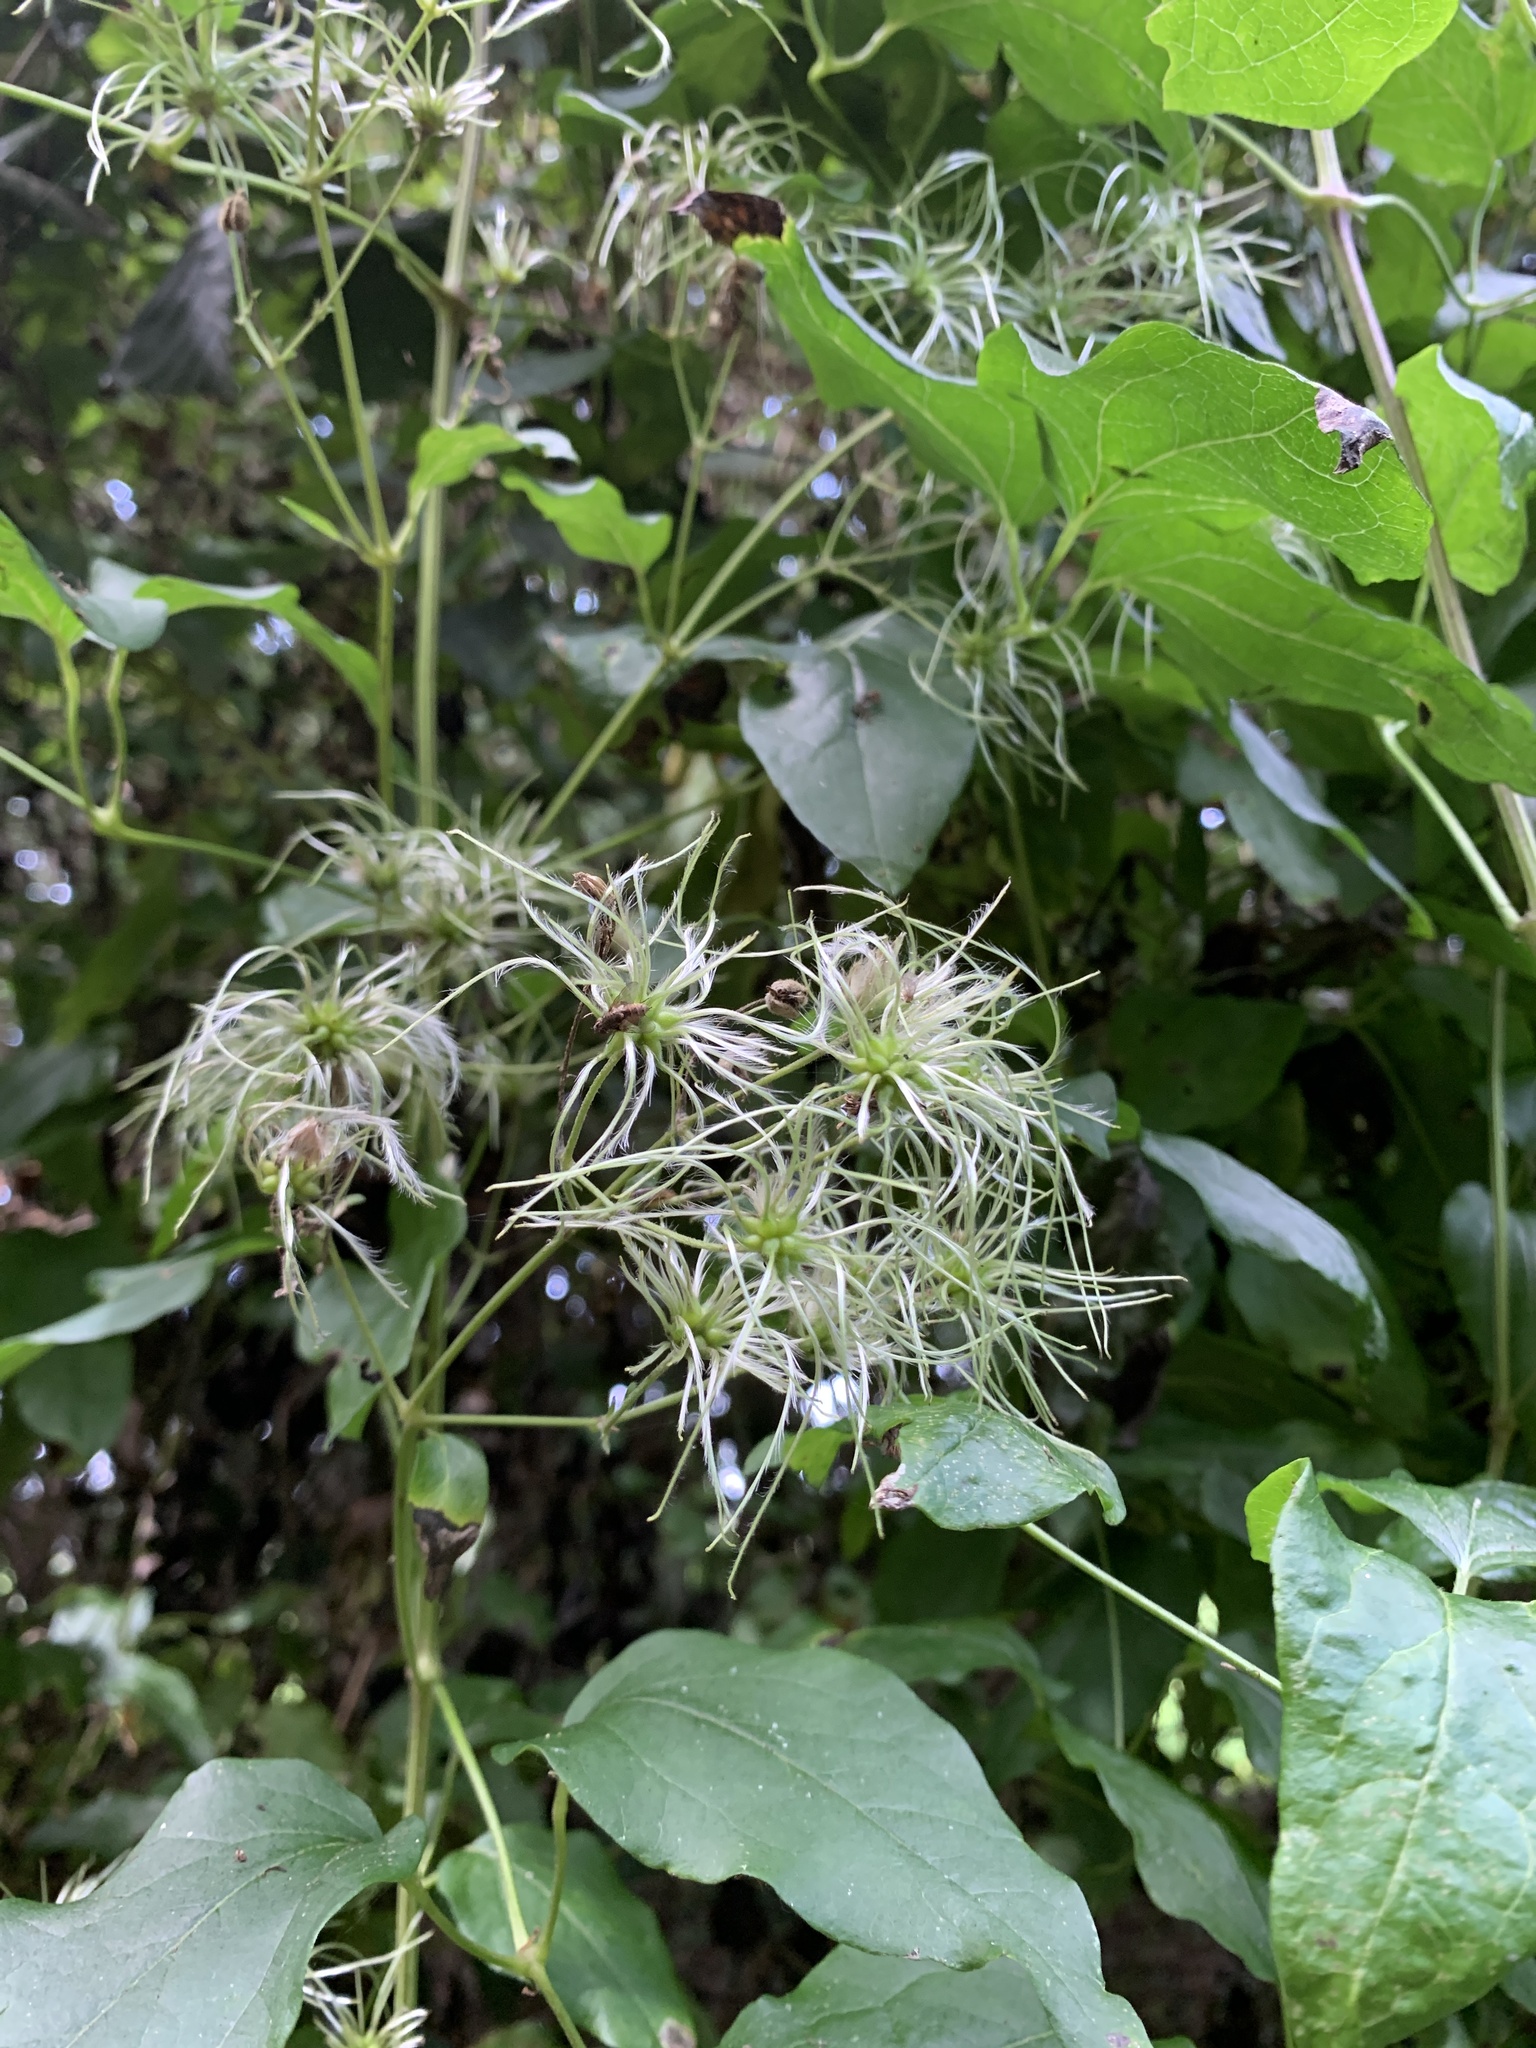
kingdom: Plantae
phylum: Tracheophyta
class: Magnoliopsida
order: Ranunculales
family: Ranunculaceae
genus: Clematis
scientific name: Clematis vitalba
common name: Evergreen clematis
